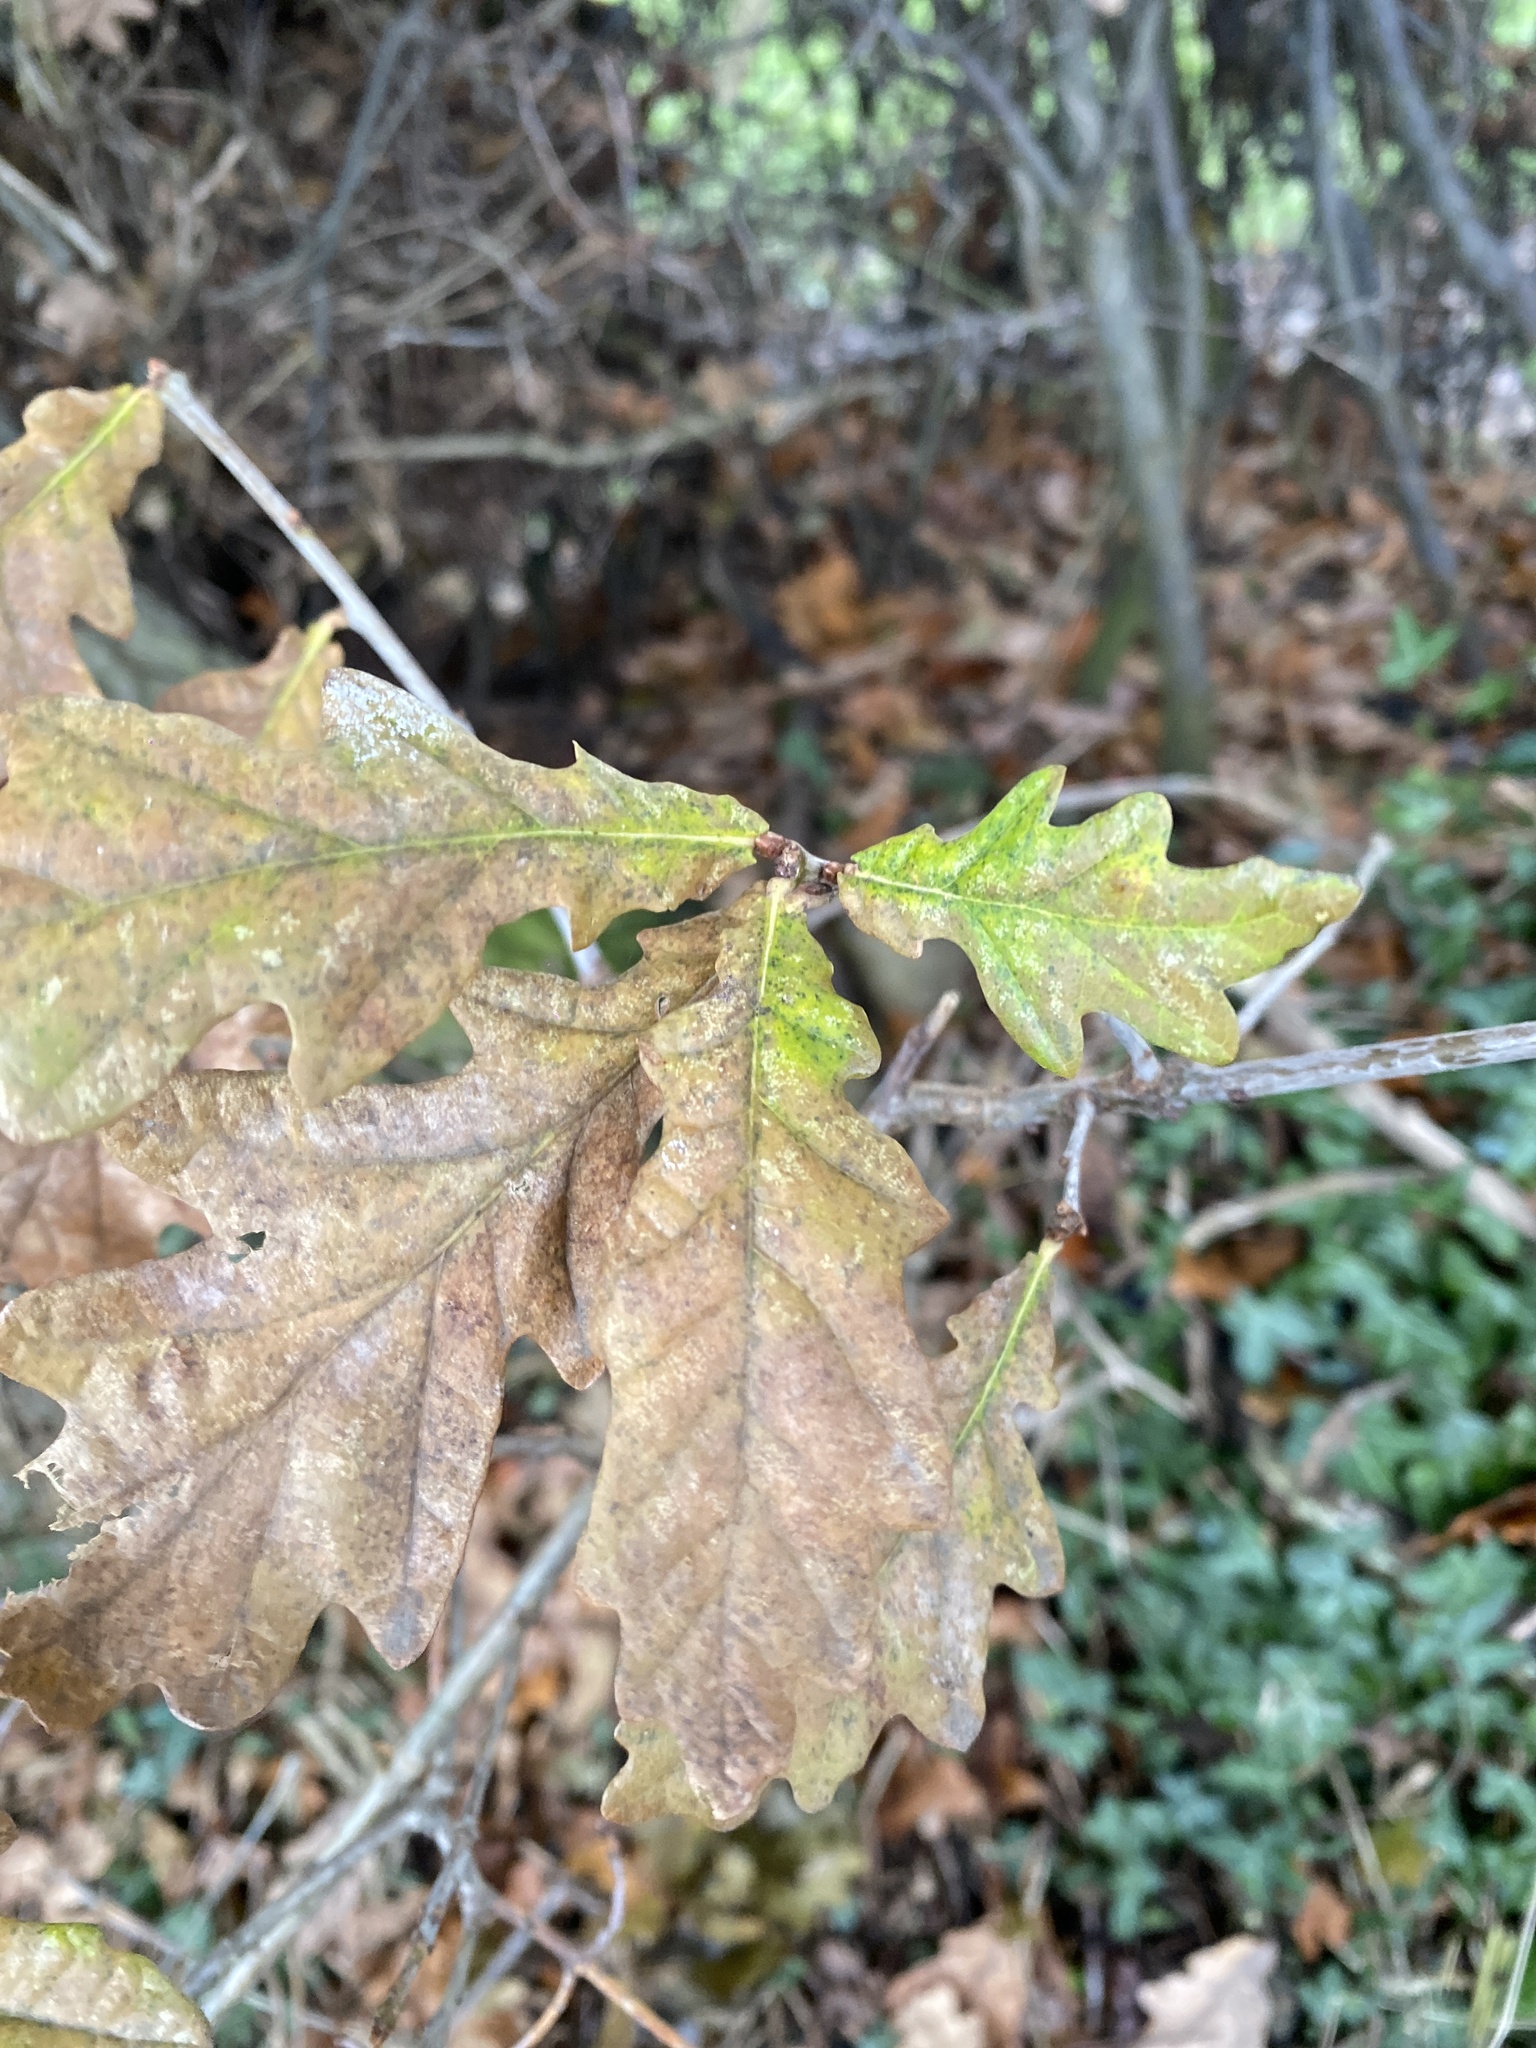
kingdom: Plantae
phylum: Tracheophyta
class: Magnoliopsida
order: Fagales
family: Fagaceae
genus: Quercus
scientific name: Quercus robur
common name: Pedunculate oak
